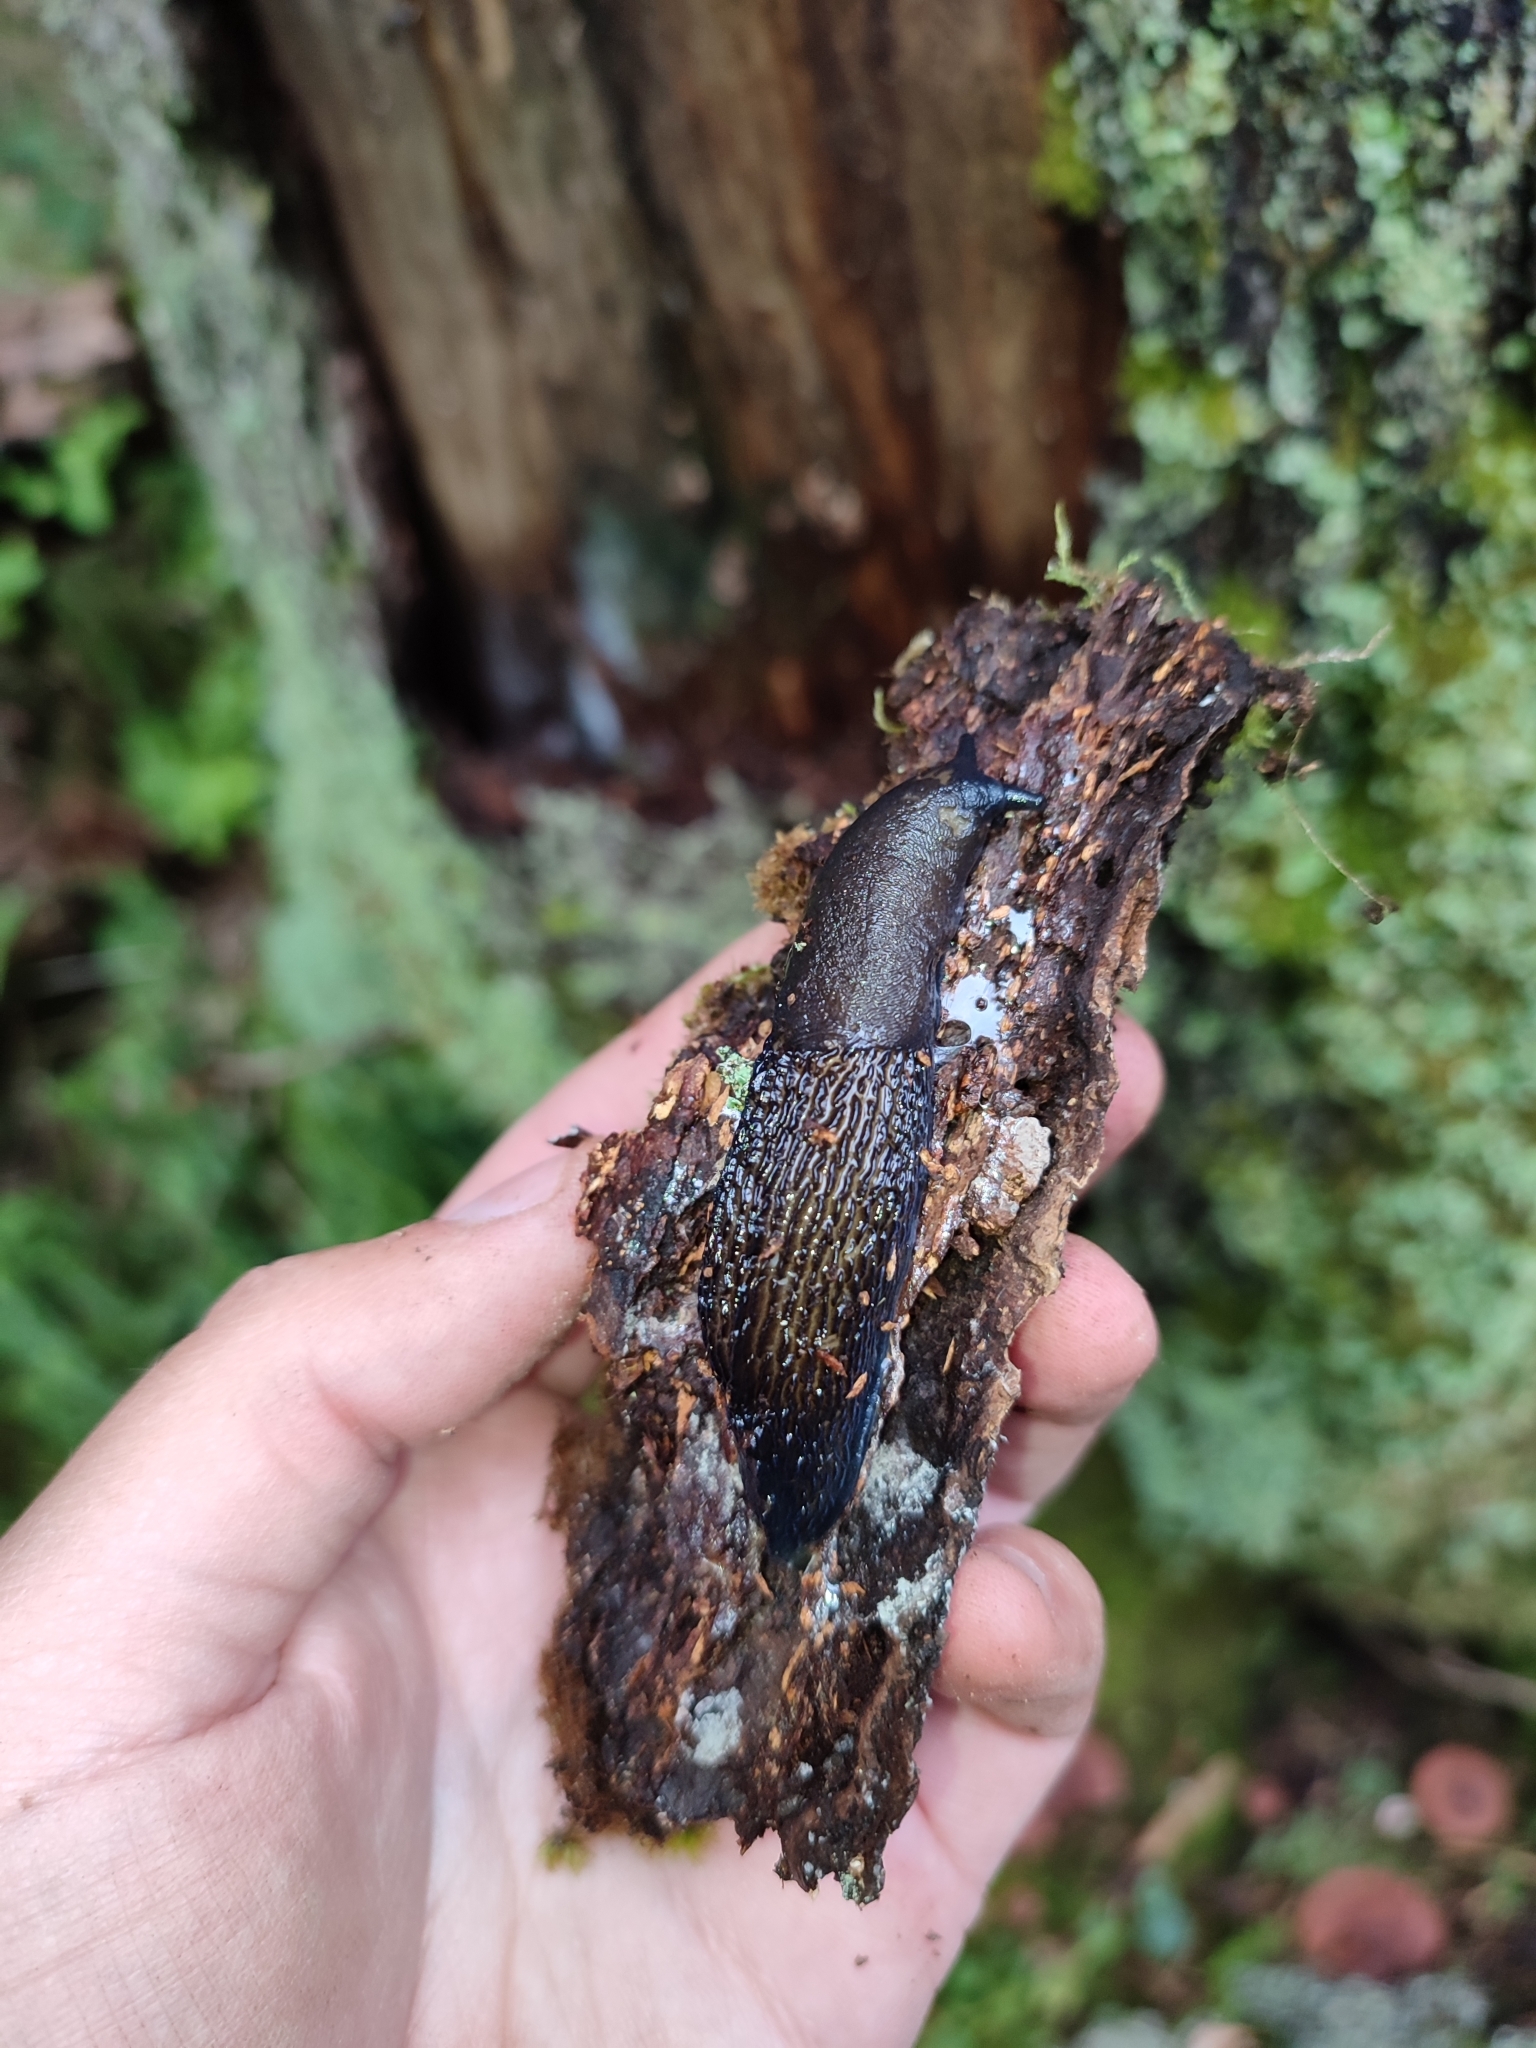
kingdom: Animalia
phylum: Mollusca
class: Gastropoda
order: Stylommatophora
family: Limacidae
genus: Bielzia
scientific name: Bielzia coerulans
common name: Carpathian blue slug
